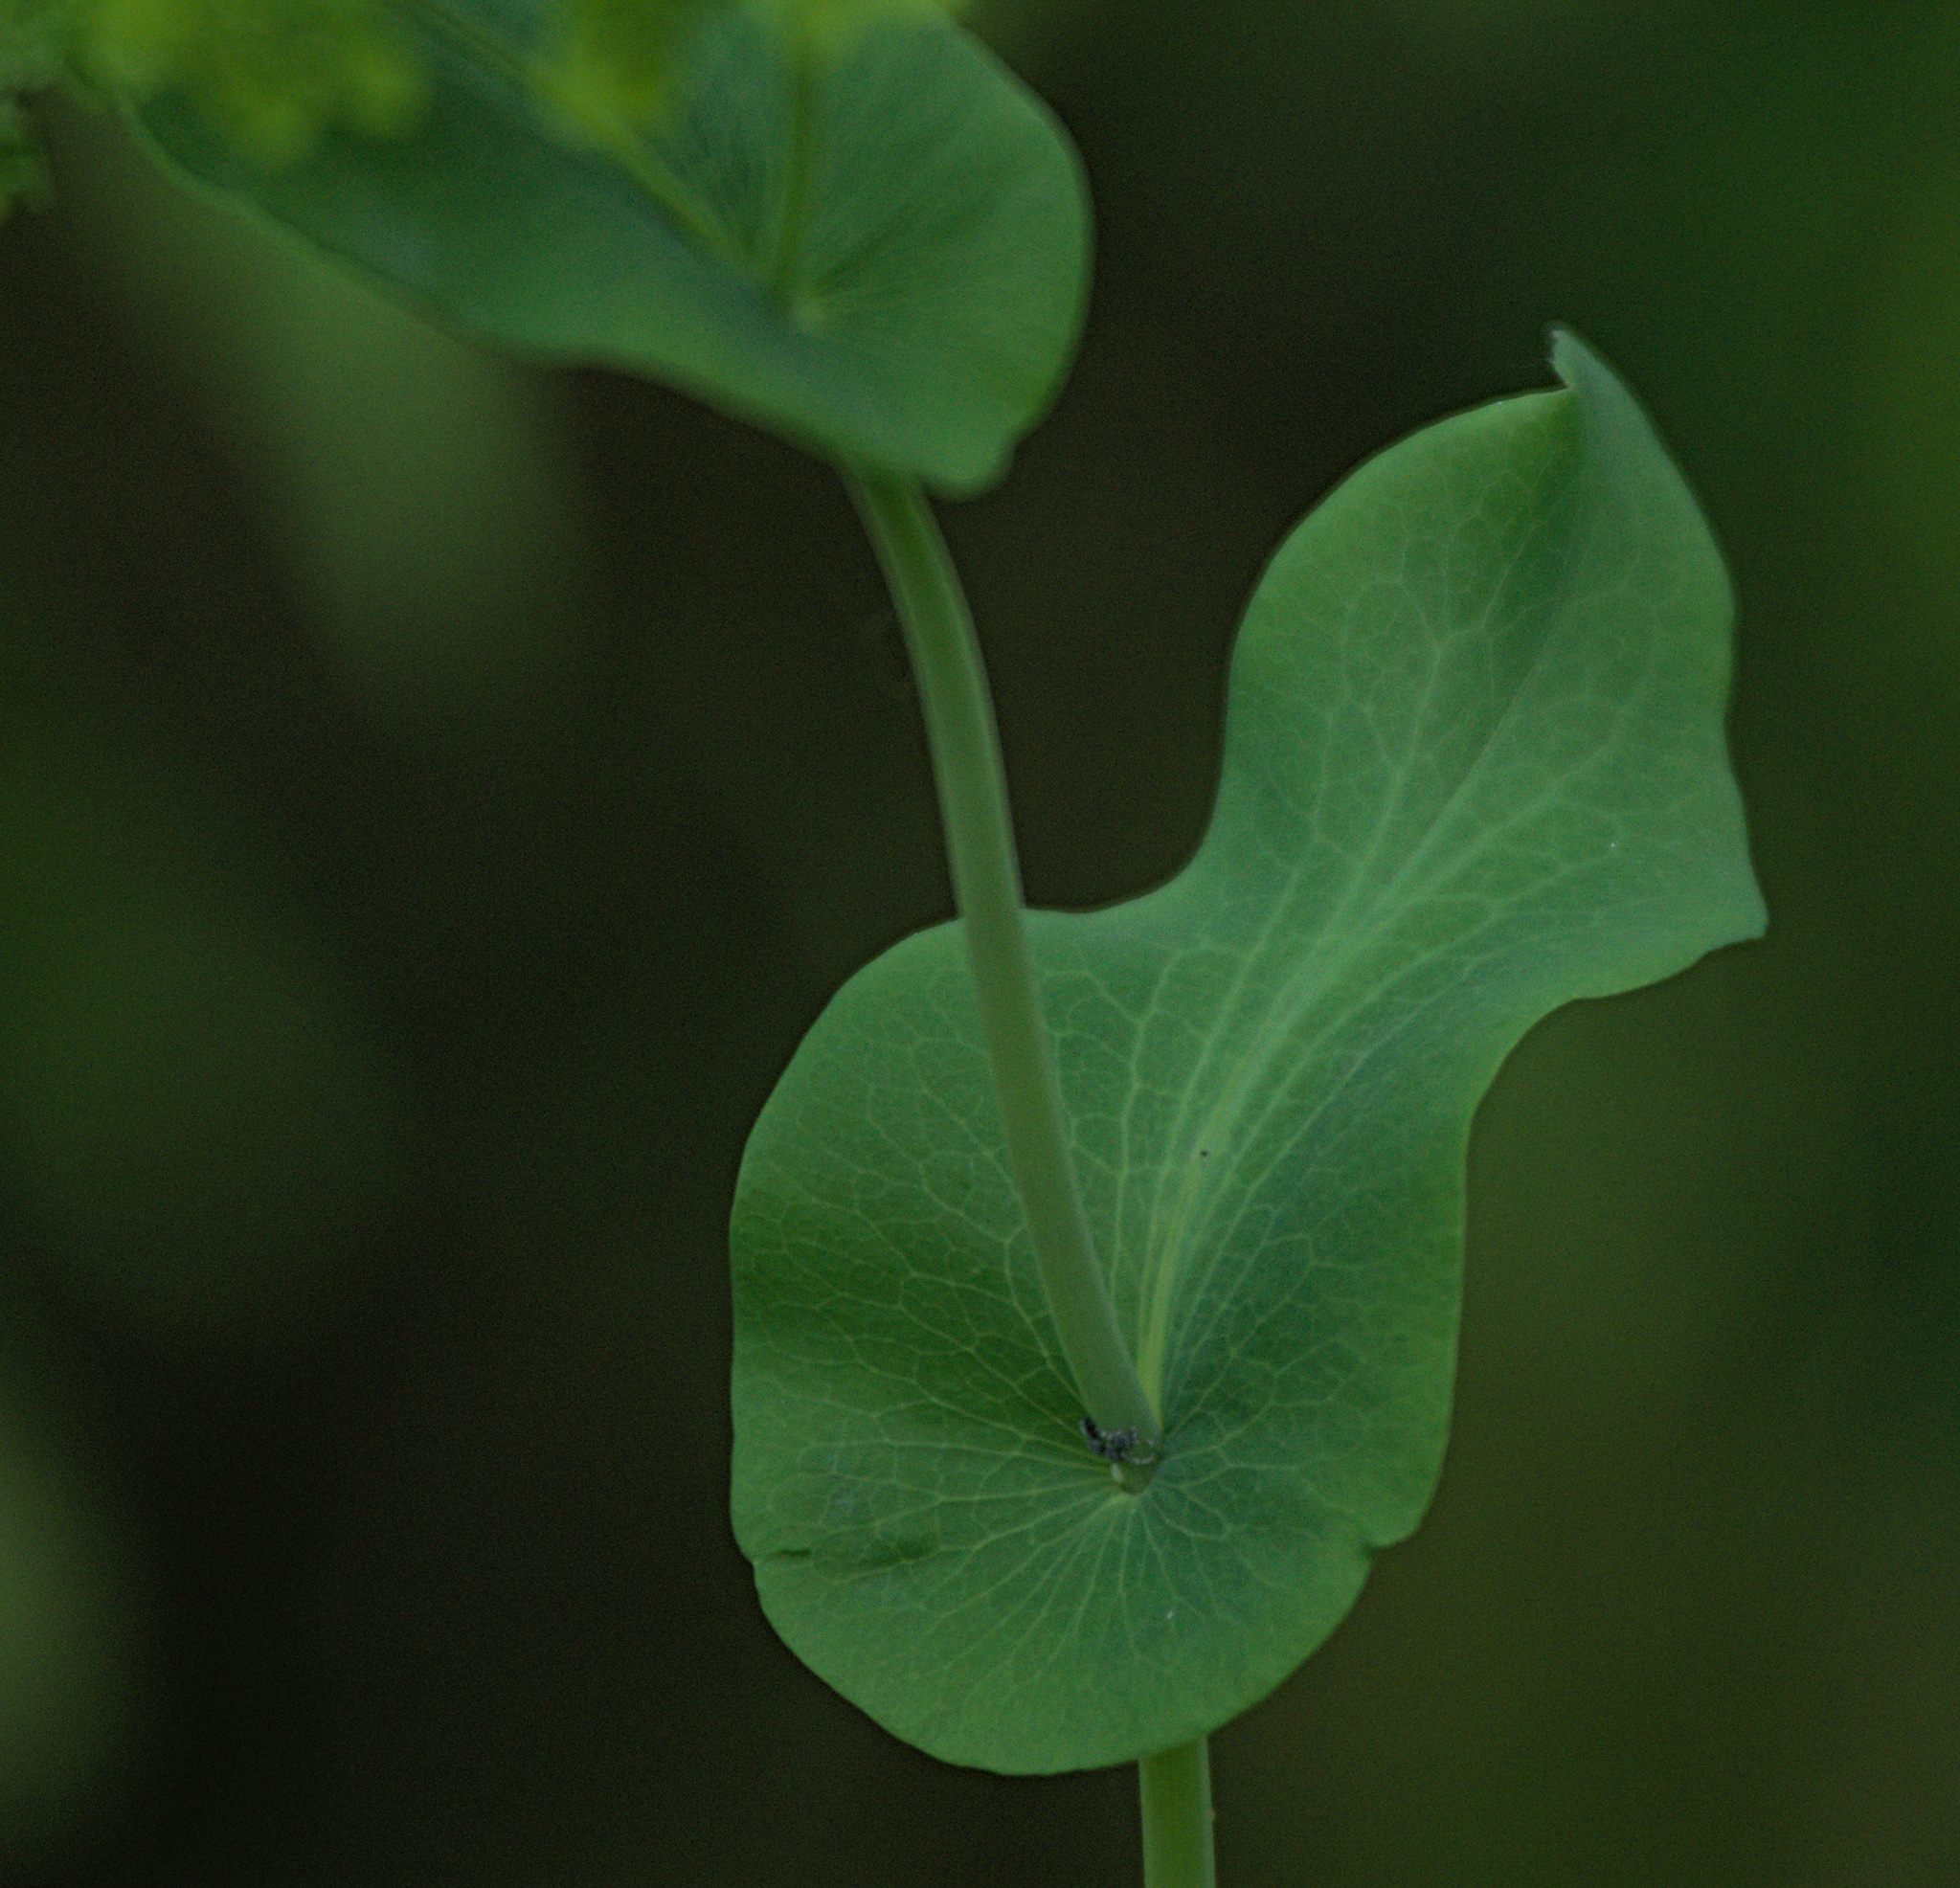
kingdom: Plantae
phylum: Tracheophyta
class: Magnoliopsida
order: Apiales
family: Apiaceae
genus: Bupleurum
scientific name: Bupleurum aureum
